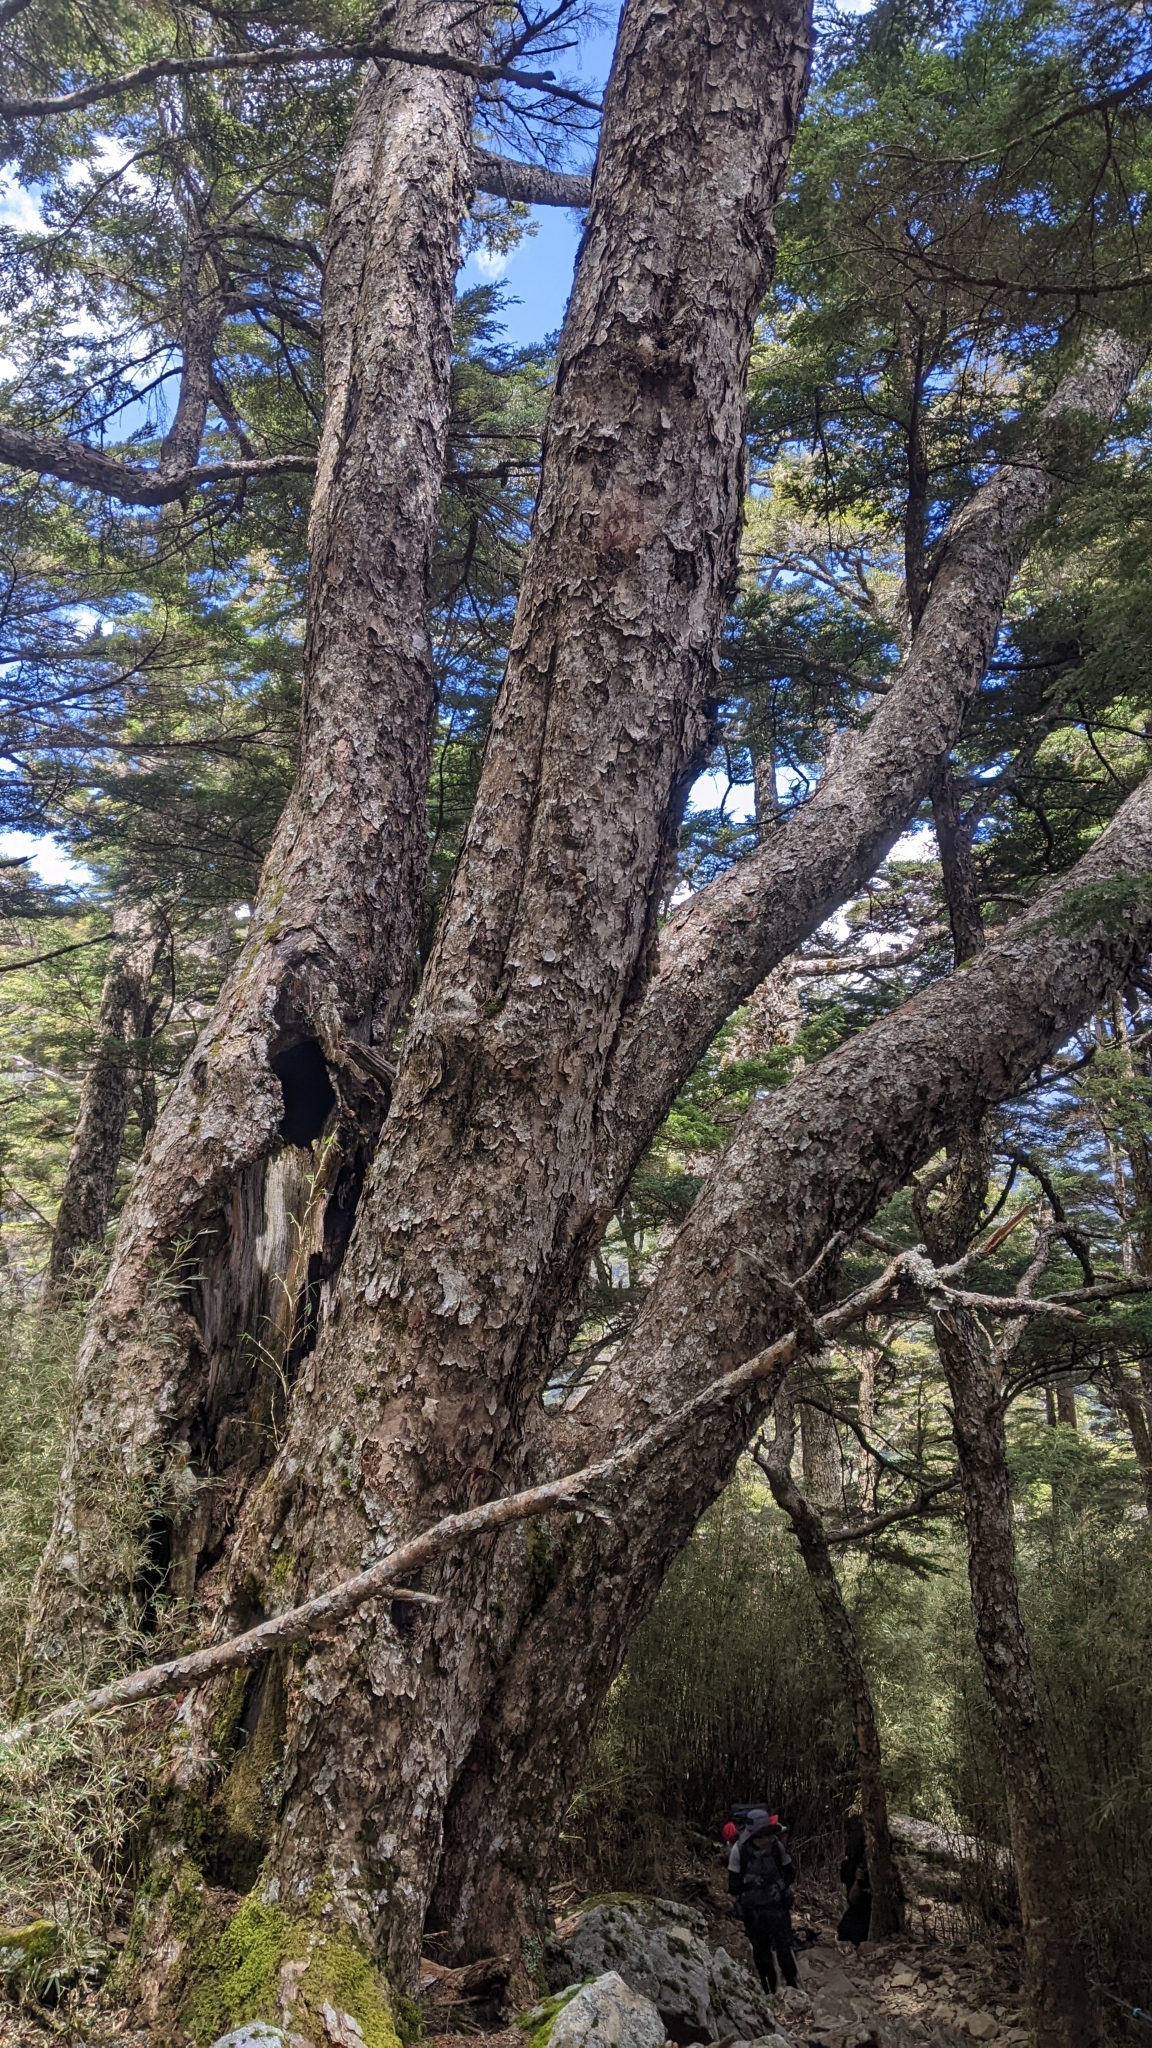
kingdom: Plantae
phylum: Tracheophyta
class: Pinopsida
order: Pinales
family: Pinaceae
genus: Tsuga
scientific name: Tsuga chinensis
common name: Chinese hemlock
